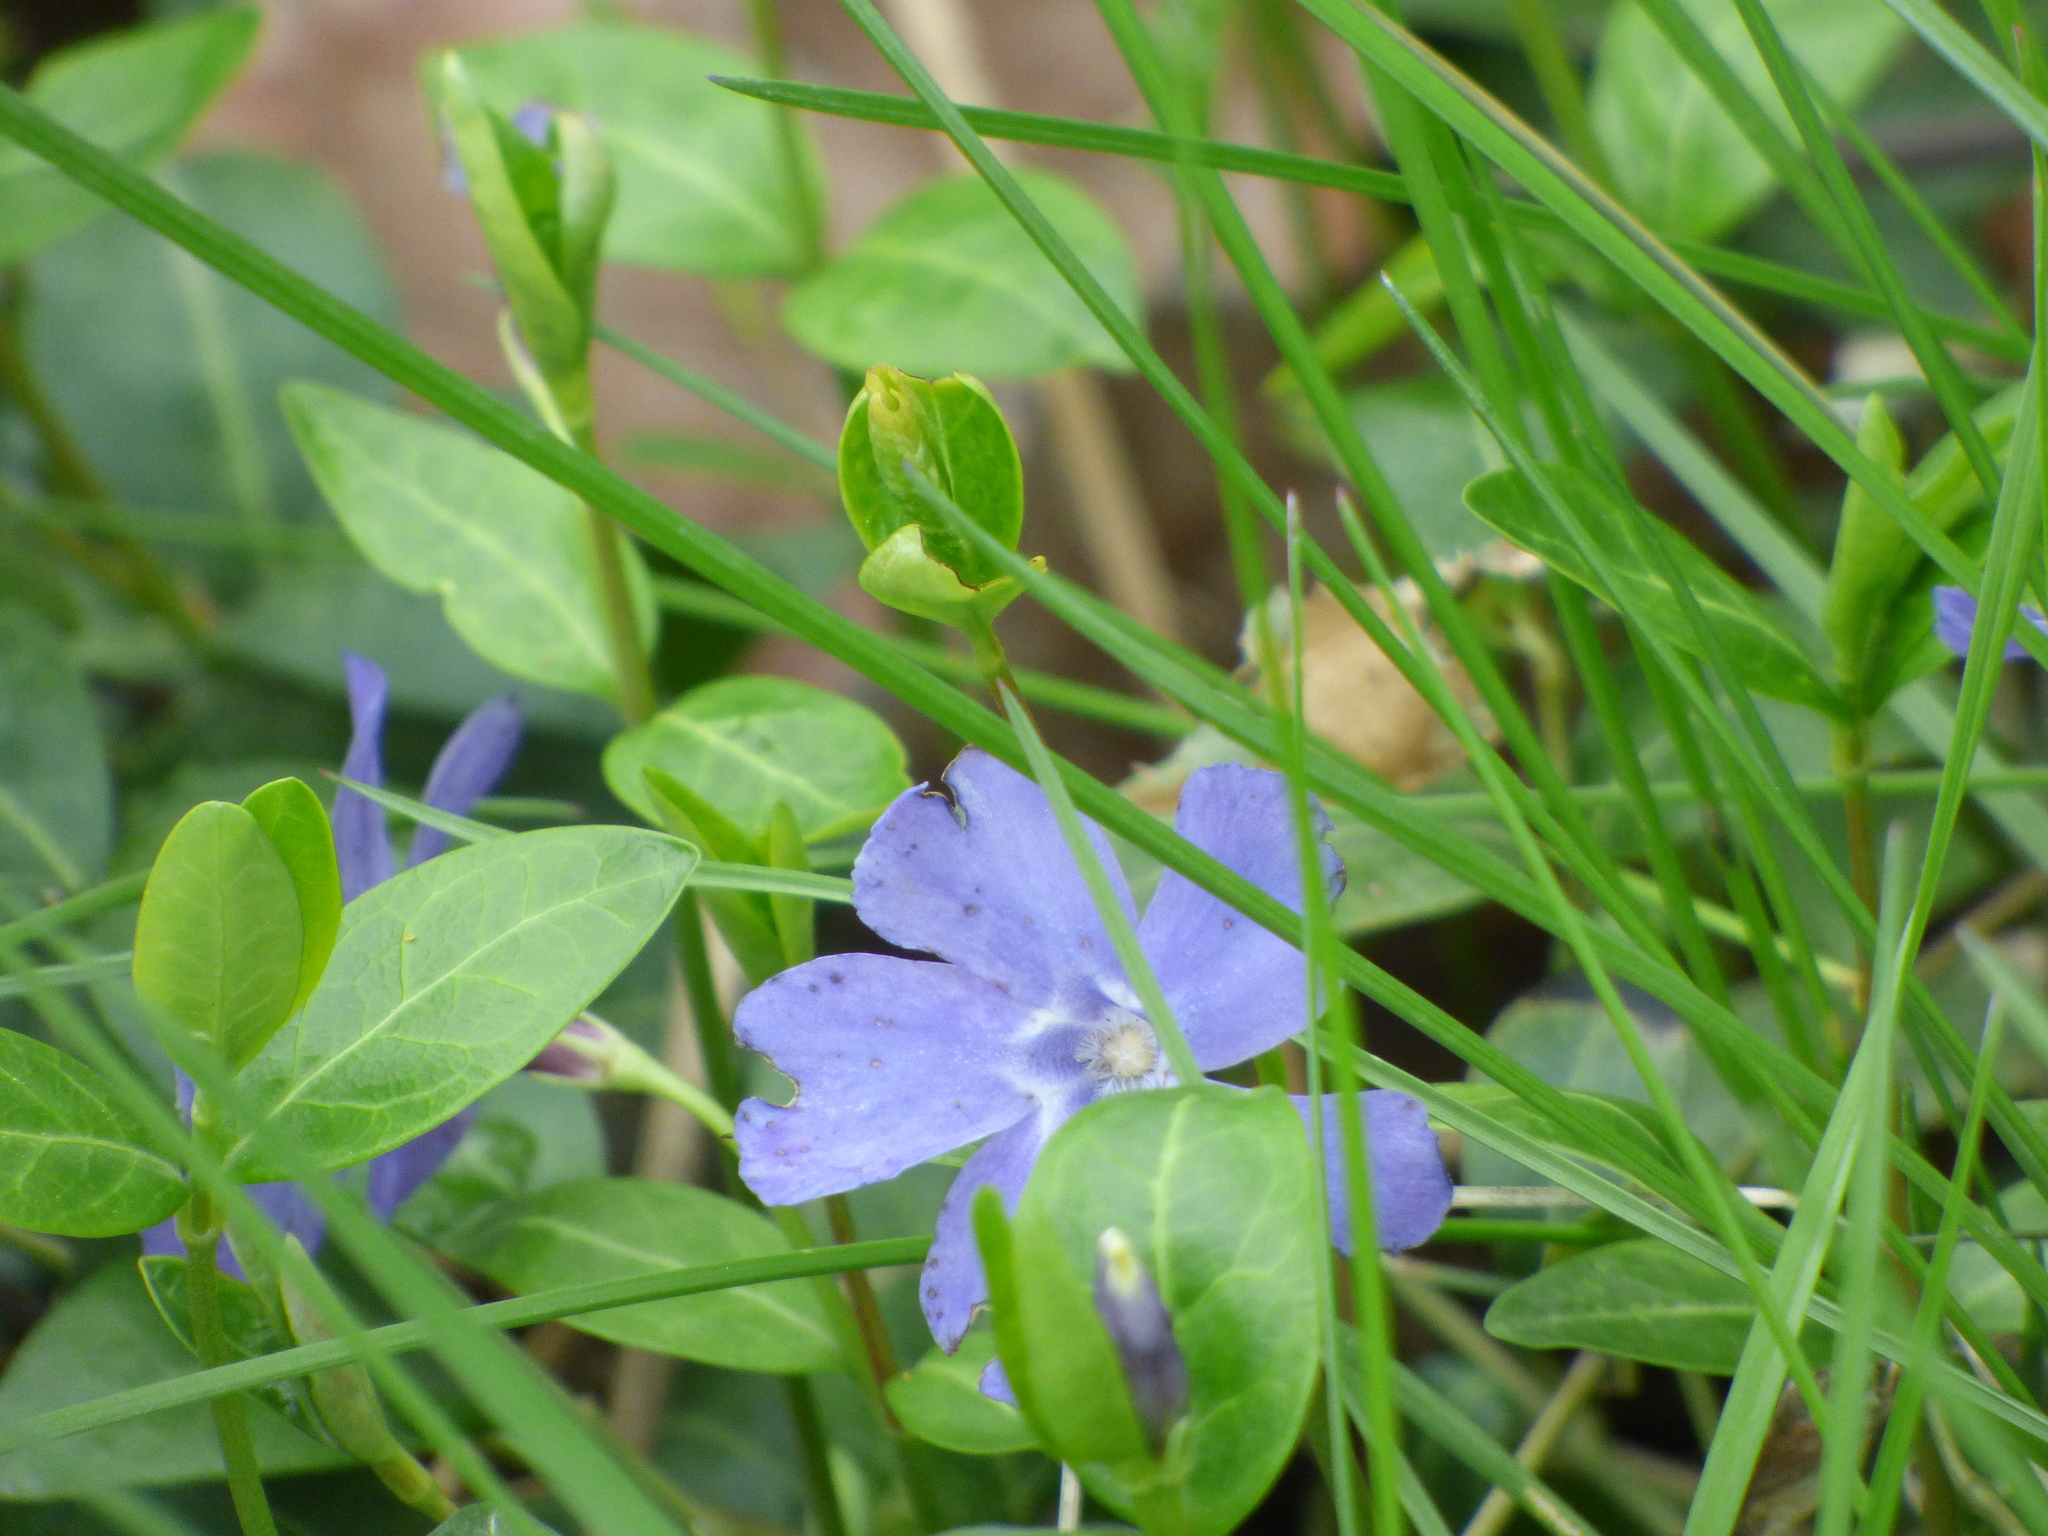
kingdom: Plantae
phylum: Tracheophyta
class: Magnoliopsida
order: Gentianales
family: Apocynaceae
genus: Vinca
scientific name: Vinca minor
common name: Lesser periwinkle
